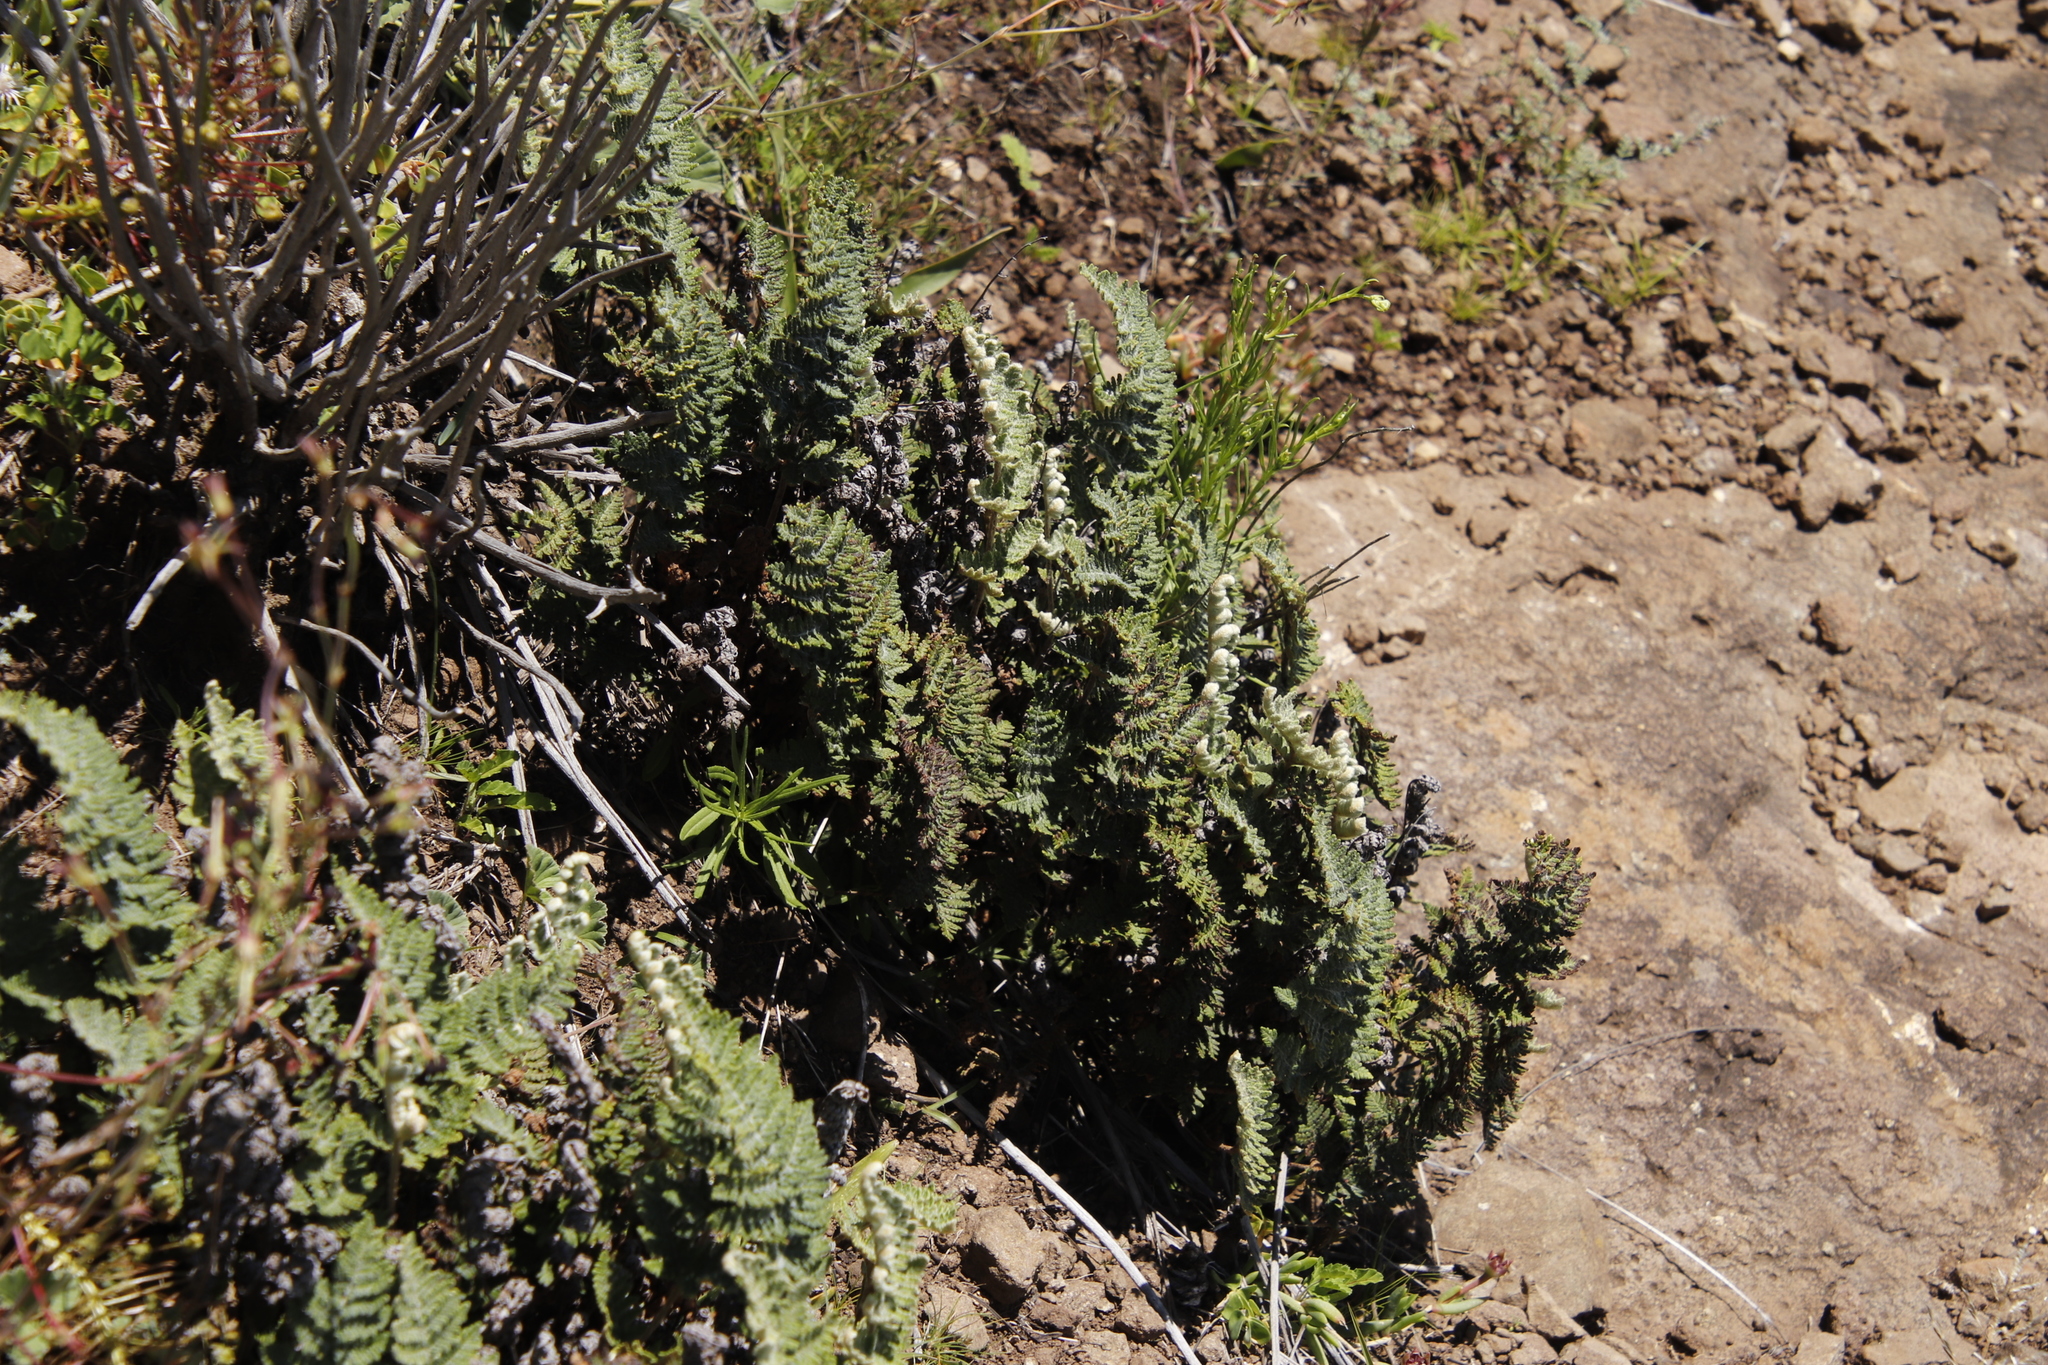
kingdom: Plantae
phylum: Tracheophyta
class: Polypodiopsida
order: Polypodiales
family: Pteridaceae
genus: Cheilanthes
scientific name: Cheilanthes eckloniana
